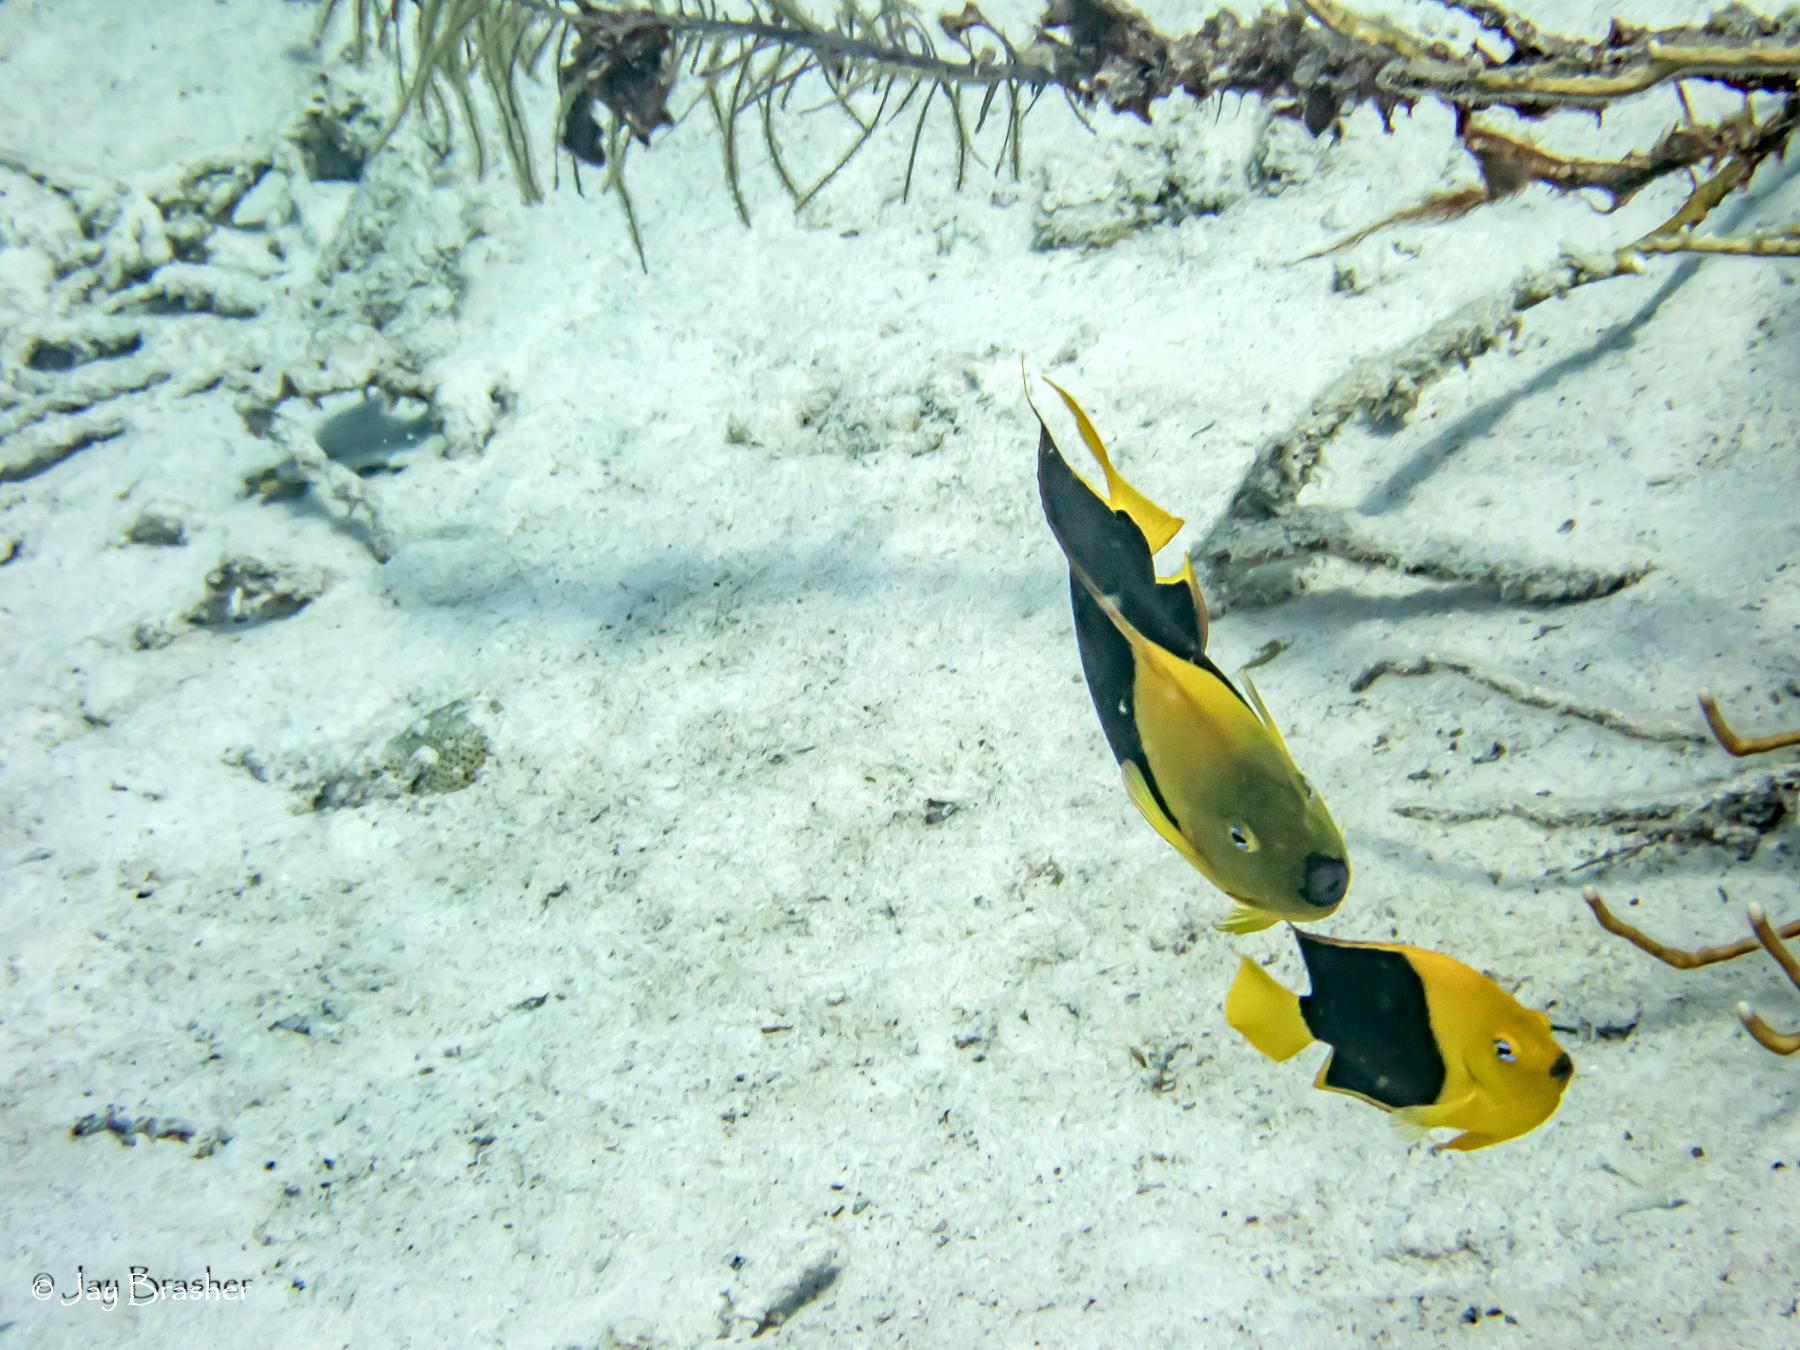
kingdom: Animalia
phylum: Chordata
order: Perciformes
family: Pomacanthidae
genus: Holacanthus
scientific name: Holacanthus tricolor
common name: Rock beauty
